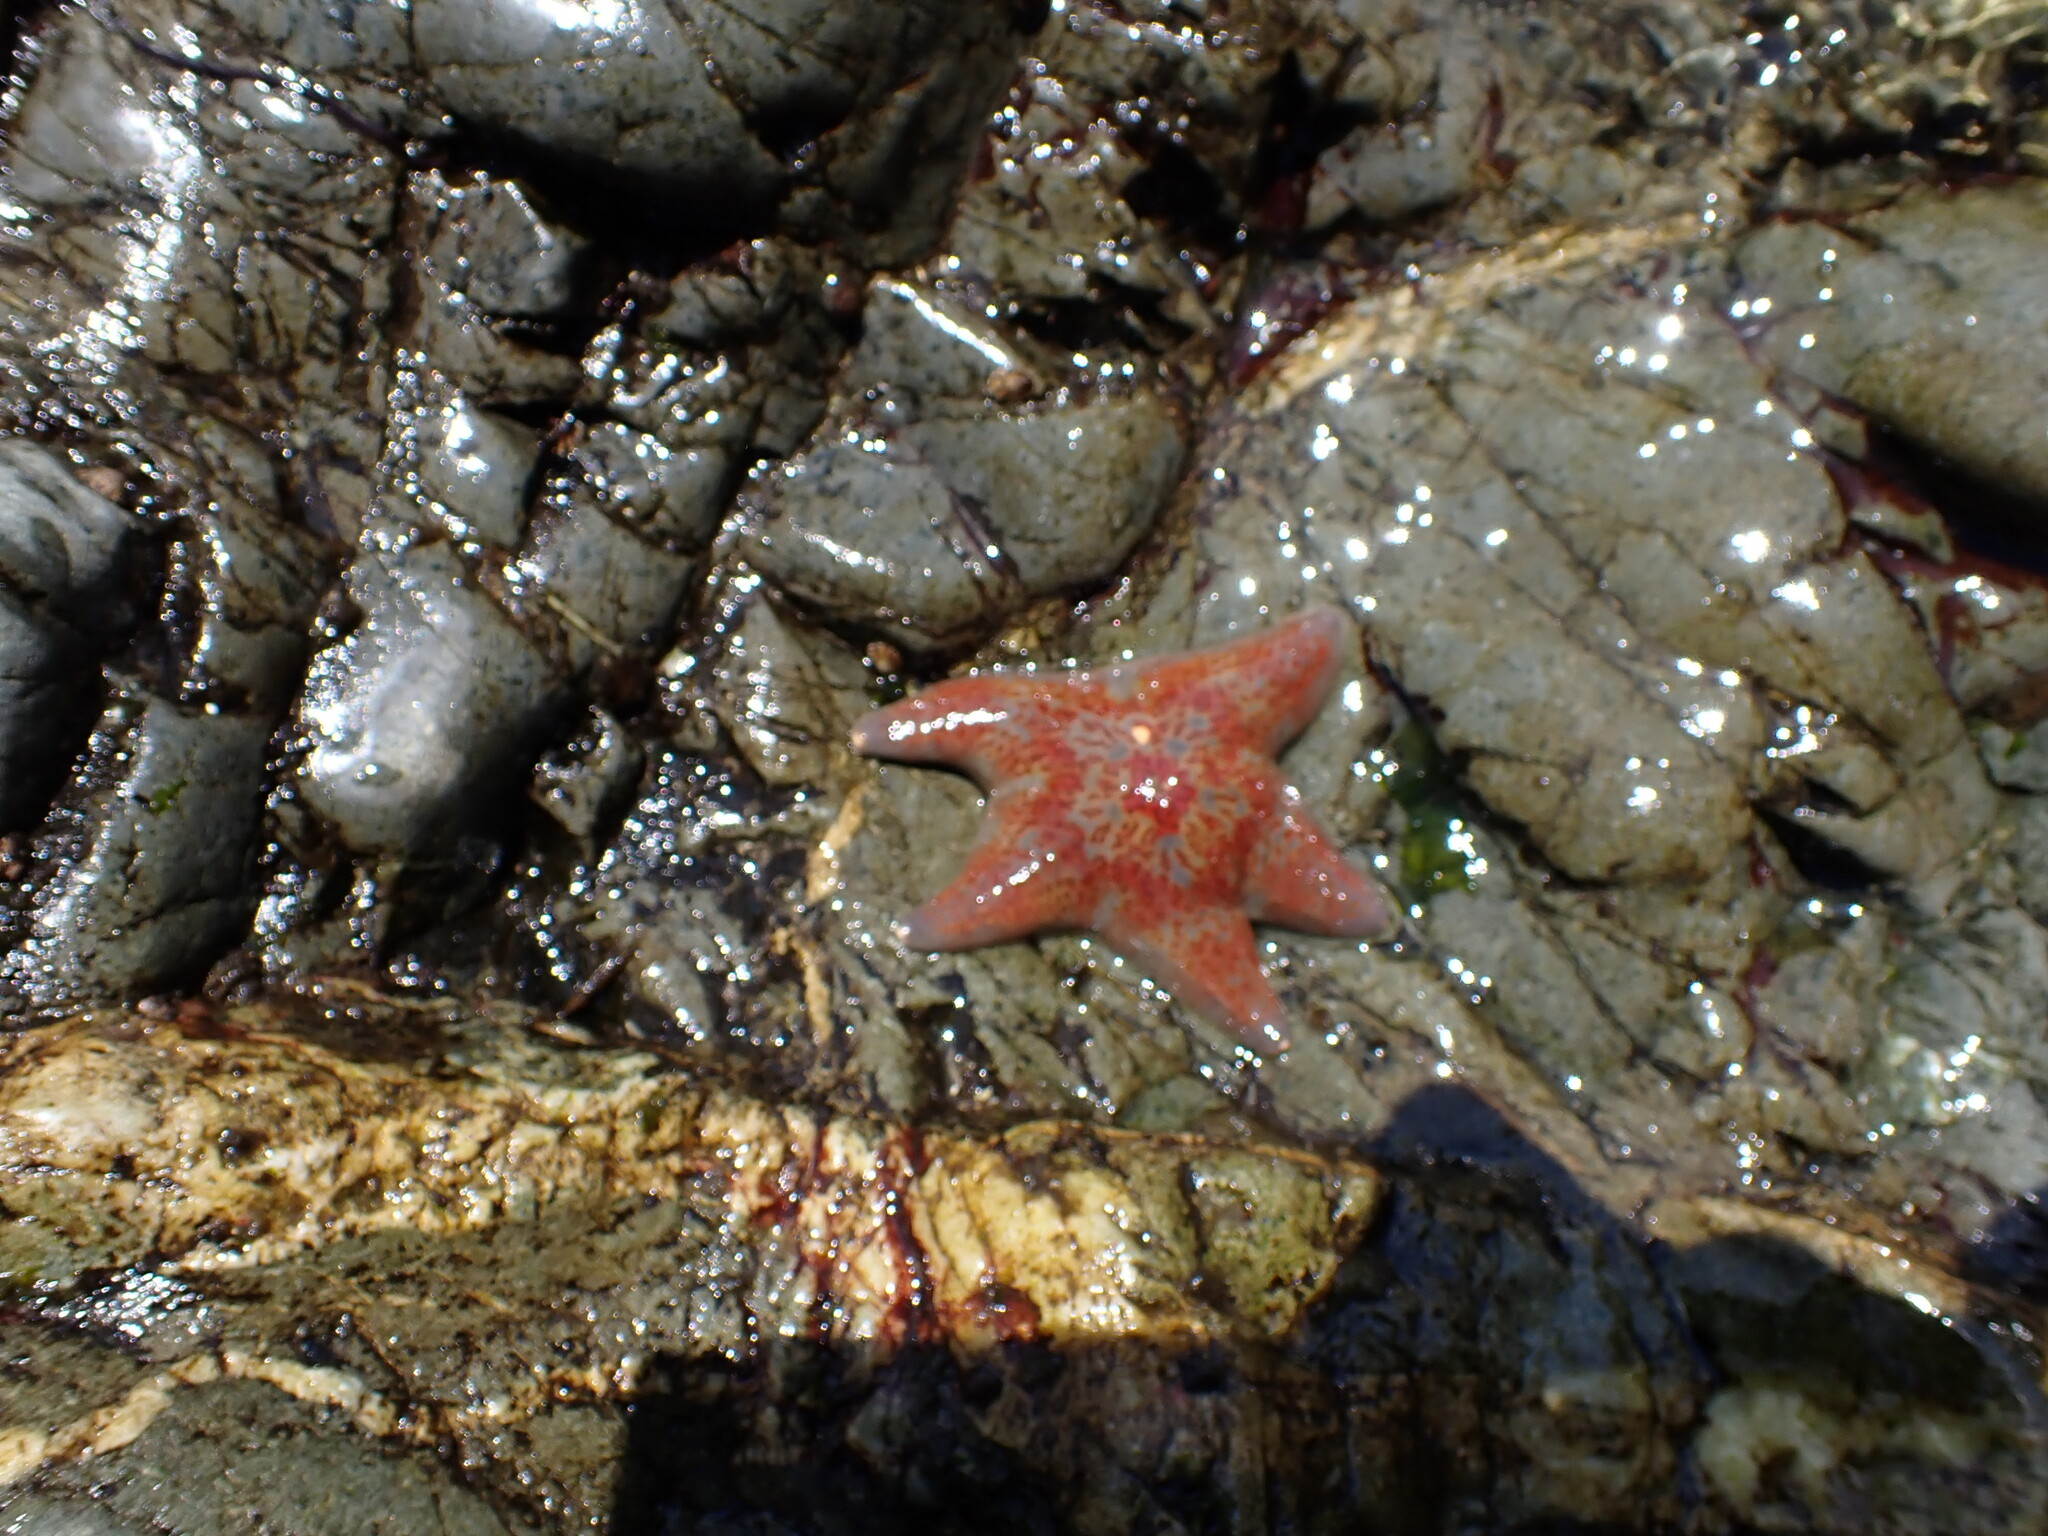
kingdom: Animalia
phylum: Echinodermata
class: Asteroidea
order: Valvatida
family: Asteropseidae
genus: Dermasterias
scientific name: Dermasterias imbricata
